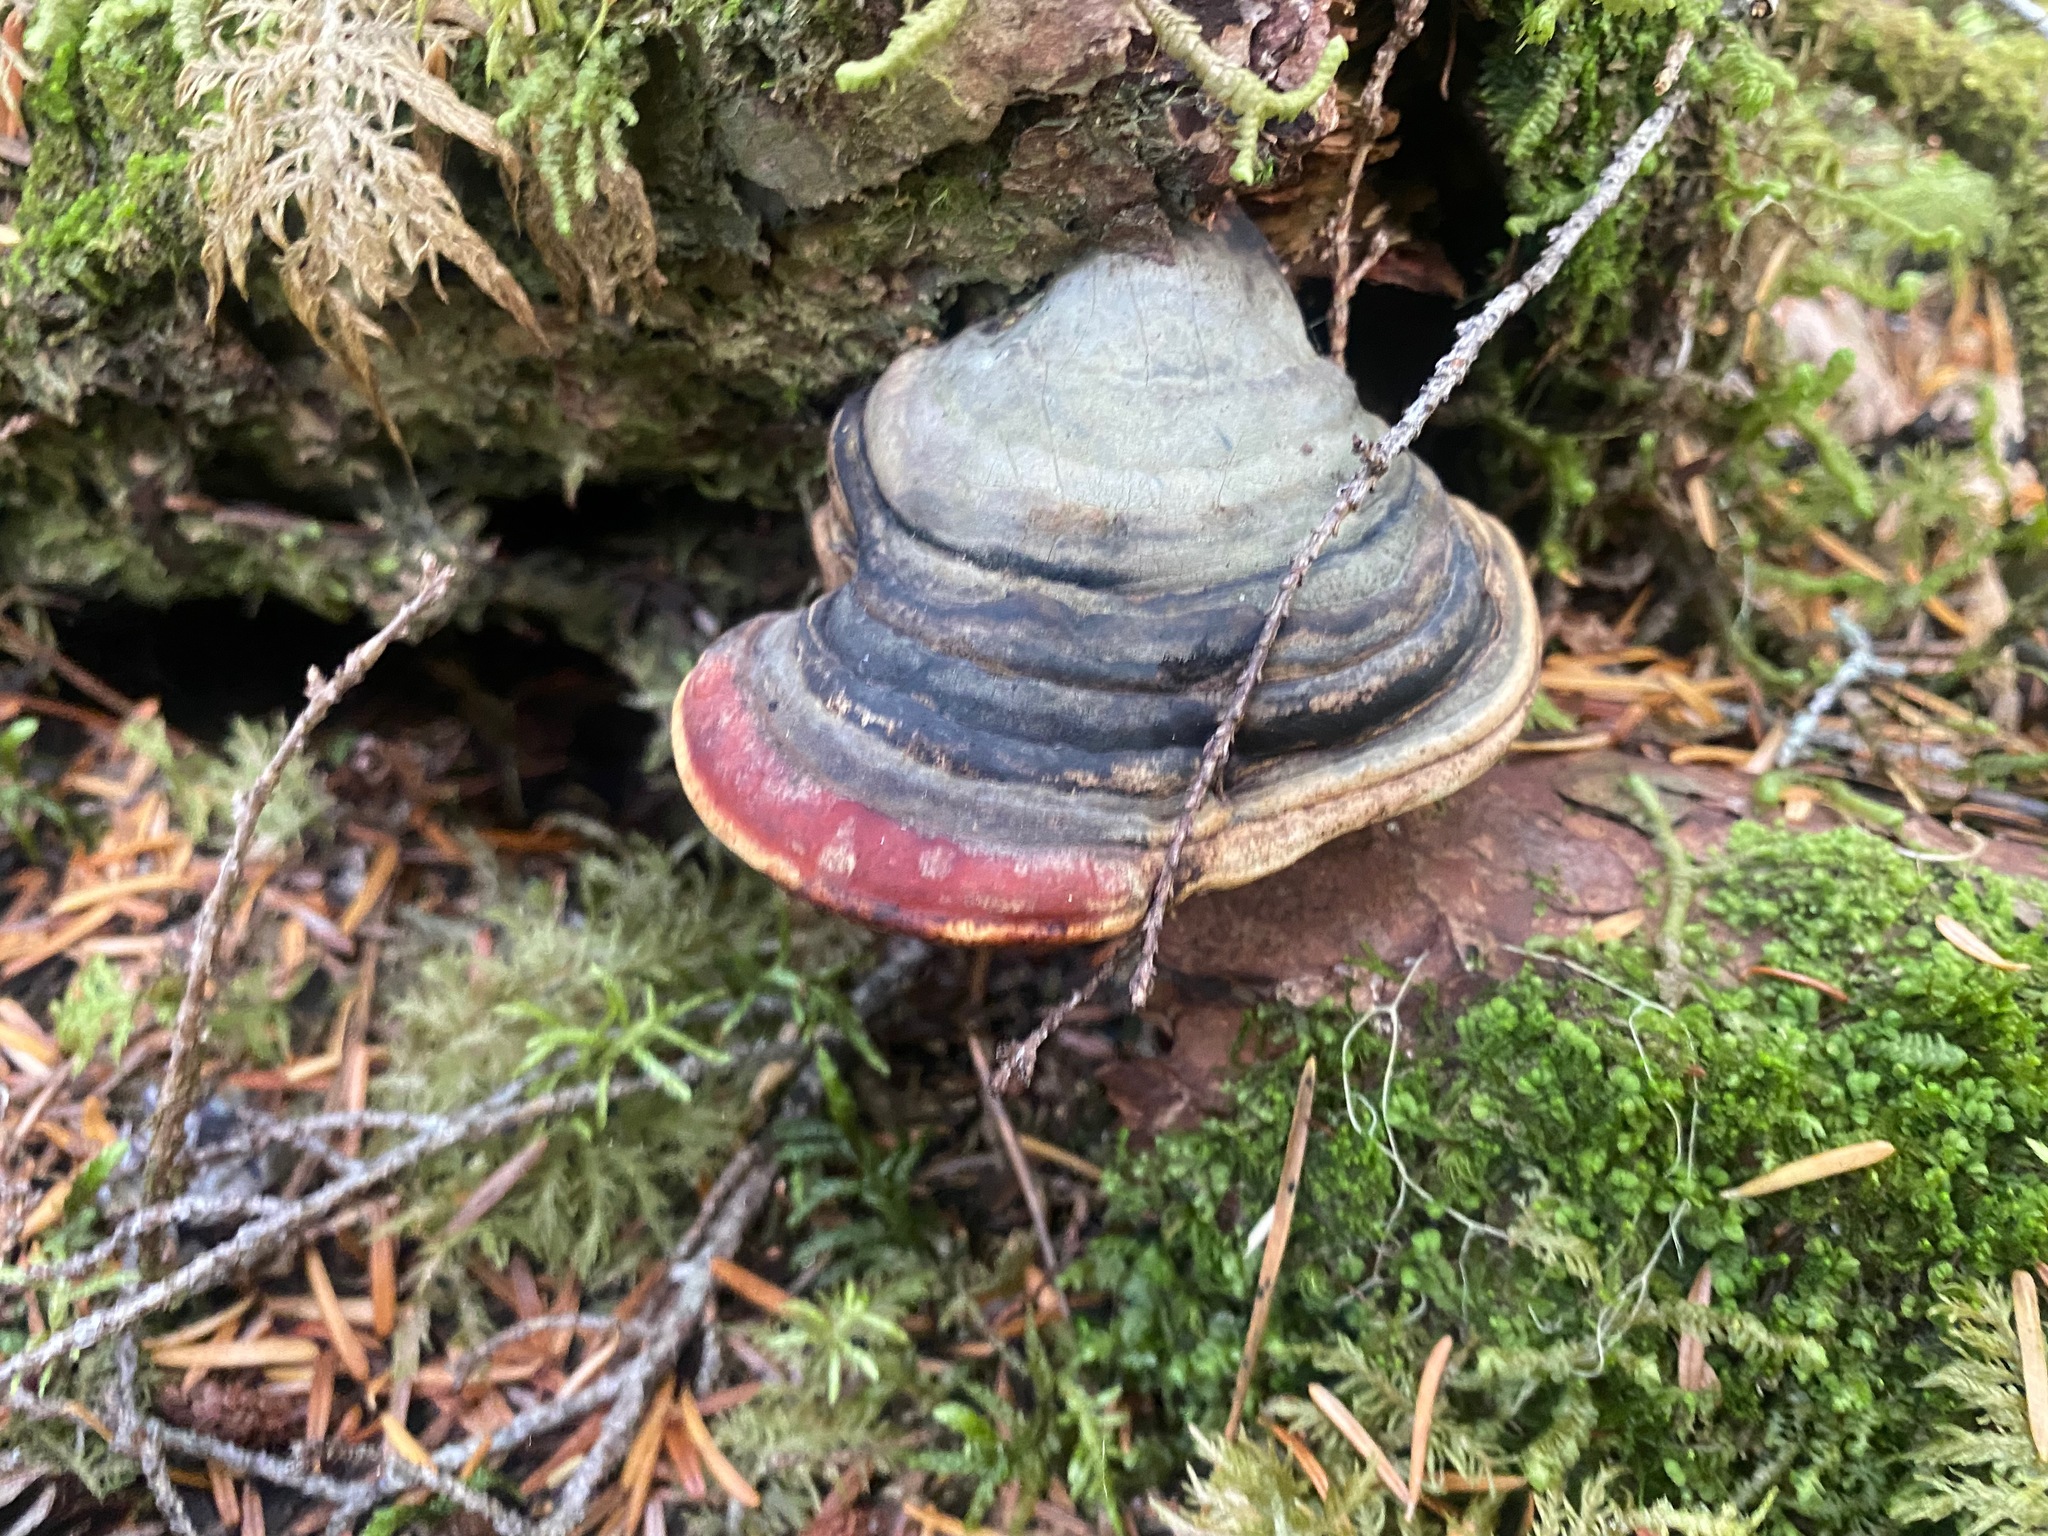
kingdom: Fungi
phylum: Basidiomycota
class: Agaricomycetes
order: Polyporales
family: Fomitopsidaceae
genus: Fomitopsis
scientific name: Fomitopsis mounceae
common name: Northern red belt
